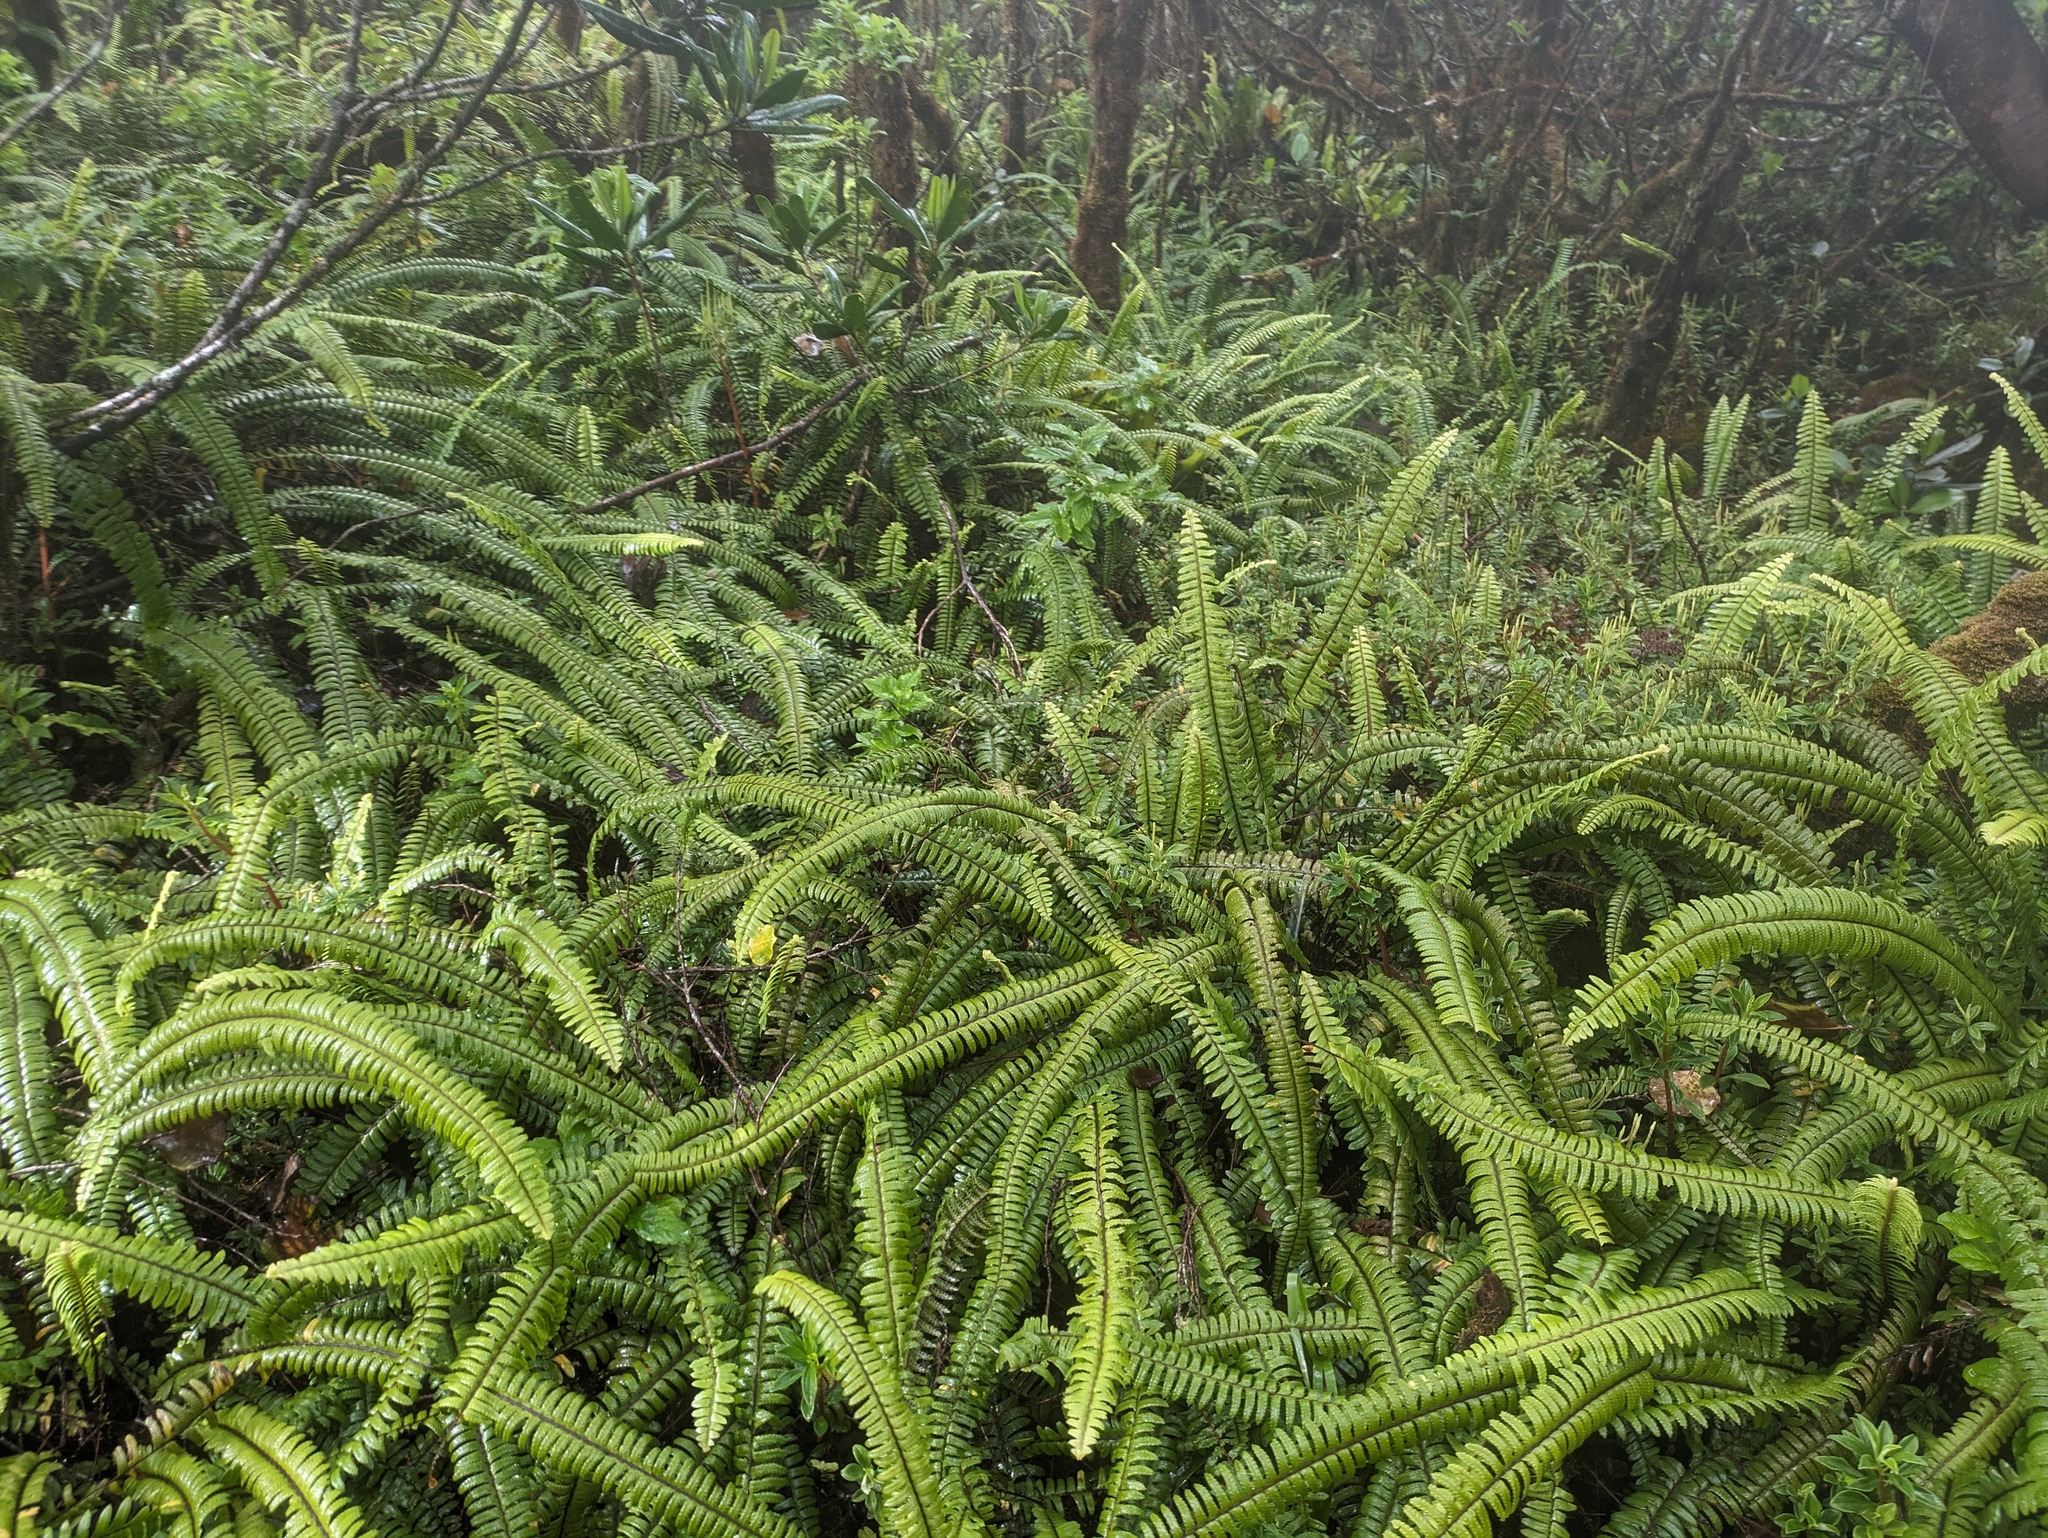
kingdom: Plantae
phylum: Tracheophyta
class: Polypodiopsida
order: Polypodiales
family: Nephrolepidaceae
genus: Nephrolepis
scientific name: Nephrolepis cordifolia
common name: Narrow swordfern
